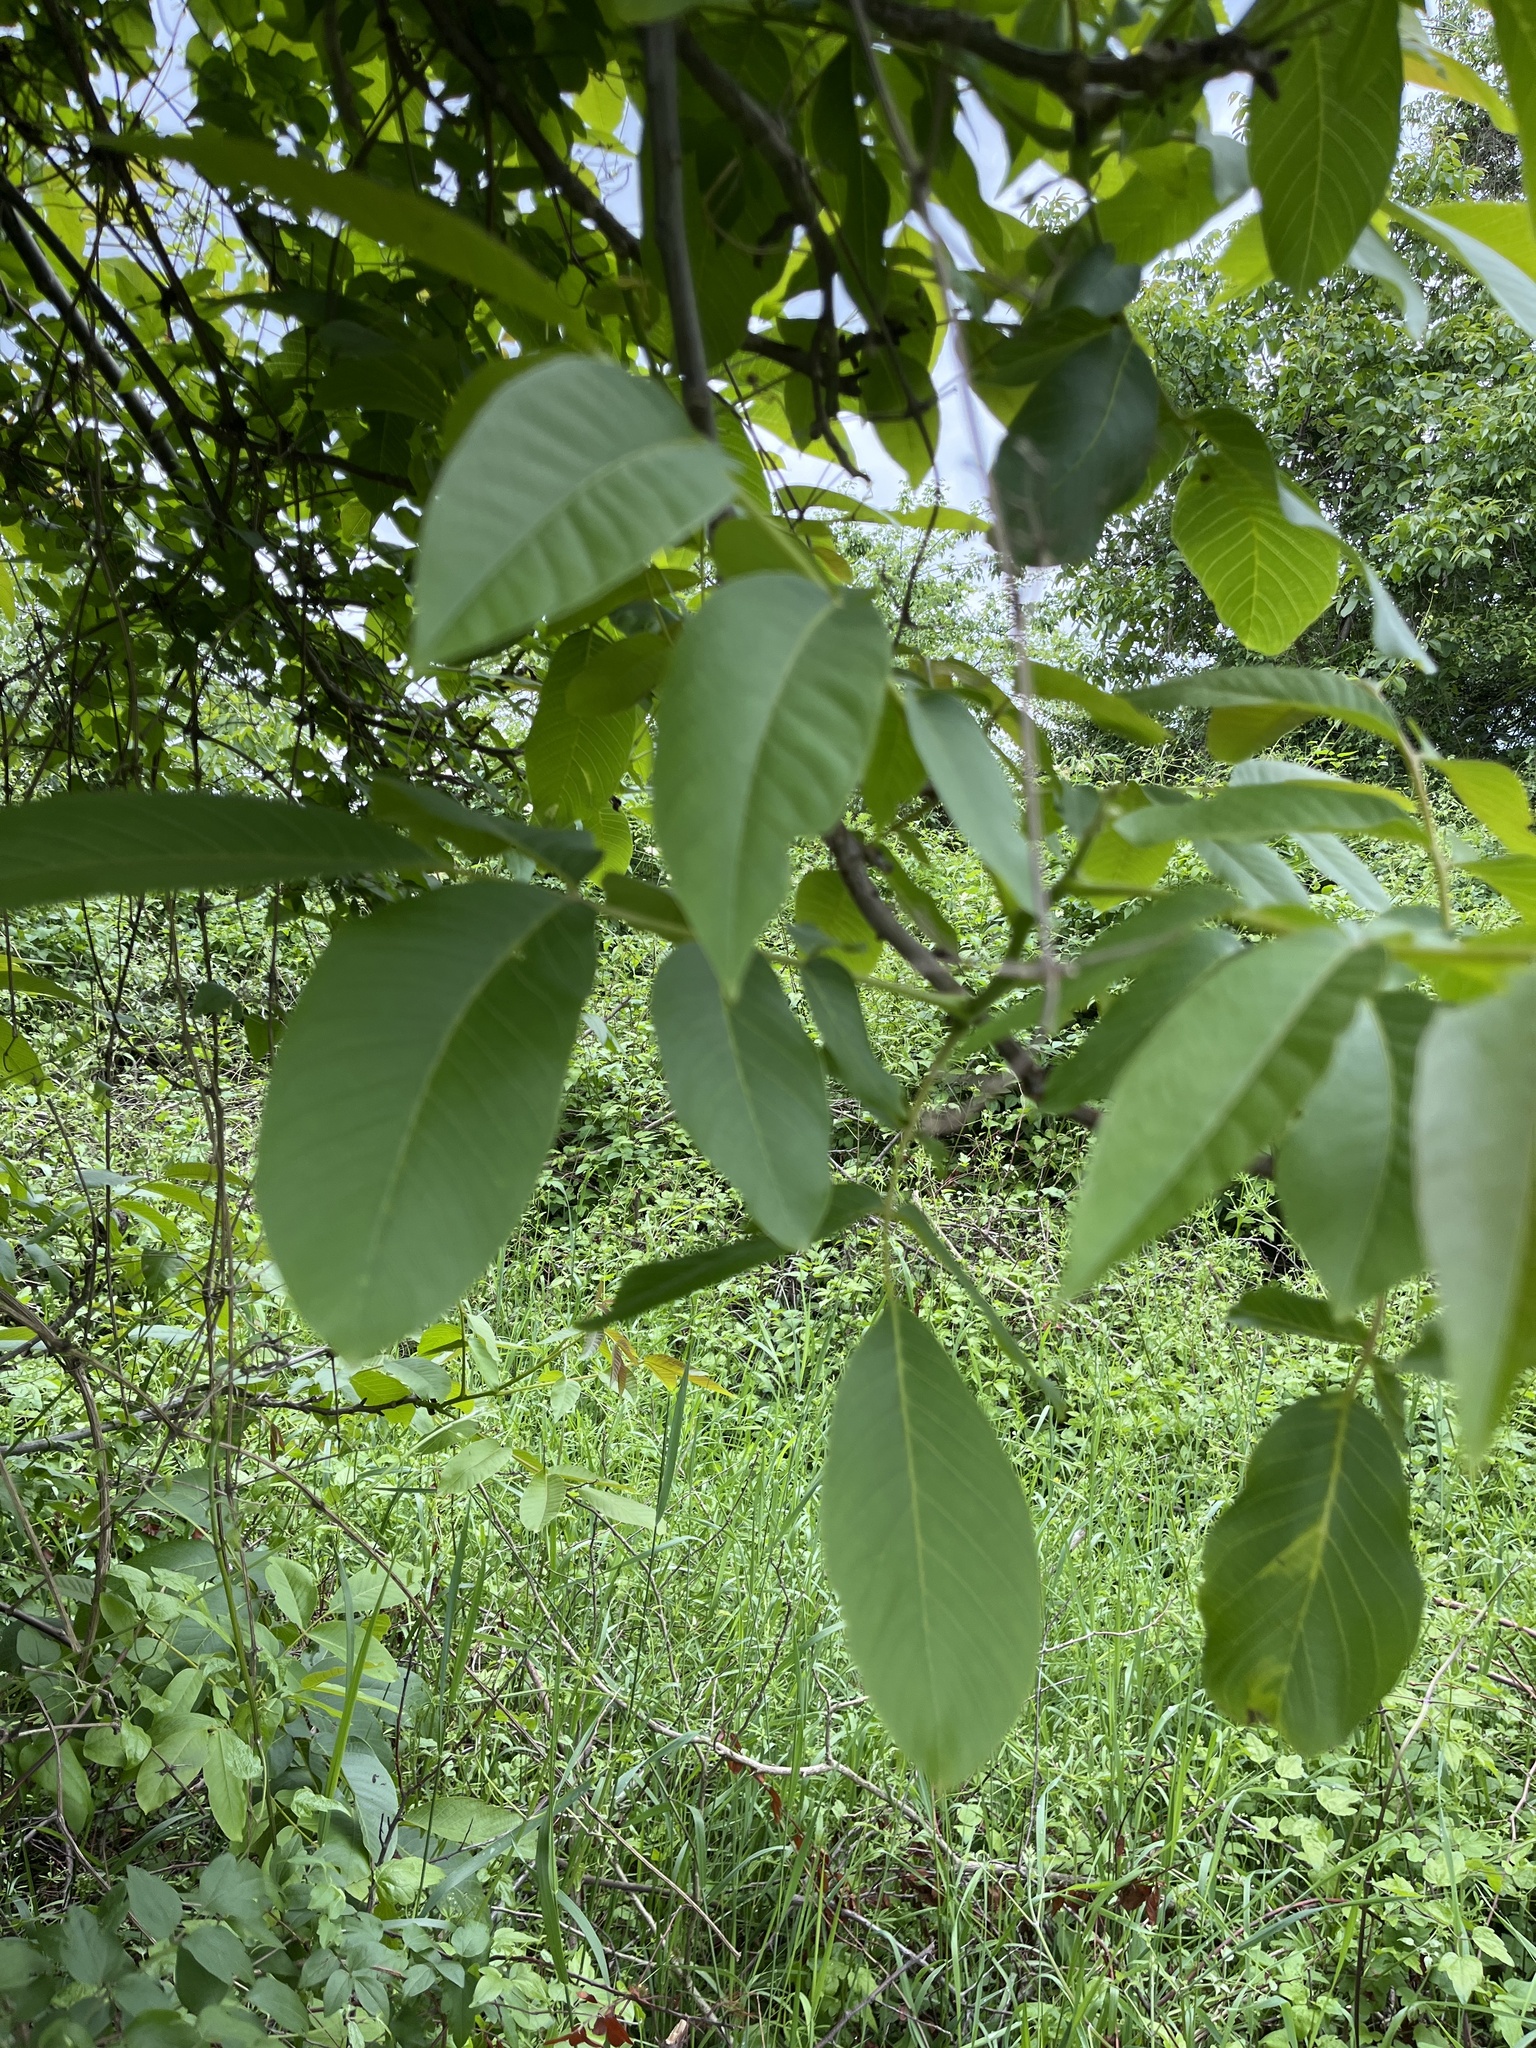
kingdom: Plantae
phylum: Tracheophyta
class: Magnoliopsida
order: Fagales
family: Juglandaceae
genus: Juglans
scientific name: Juglans regia
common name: Walnut
